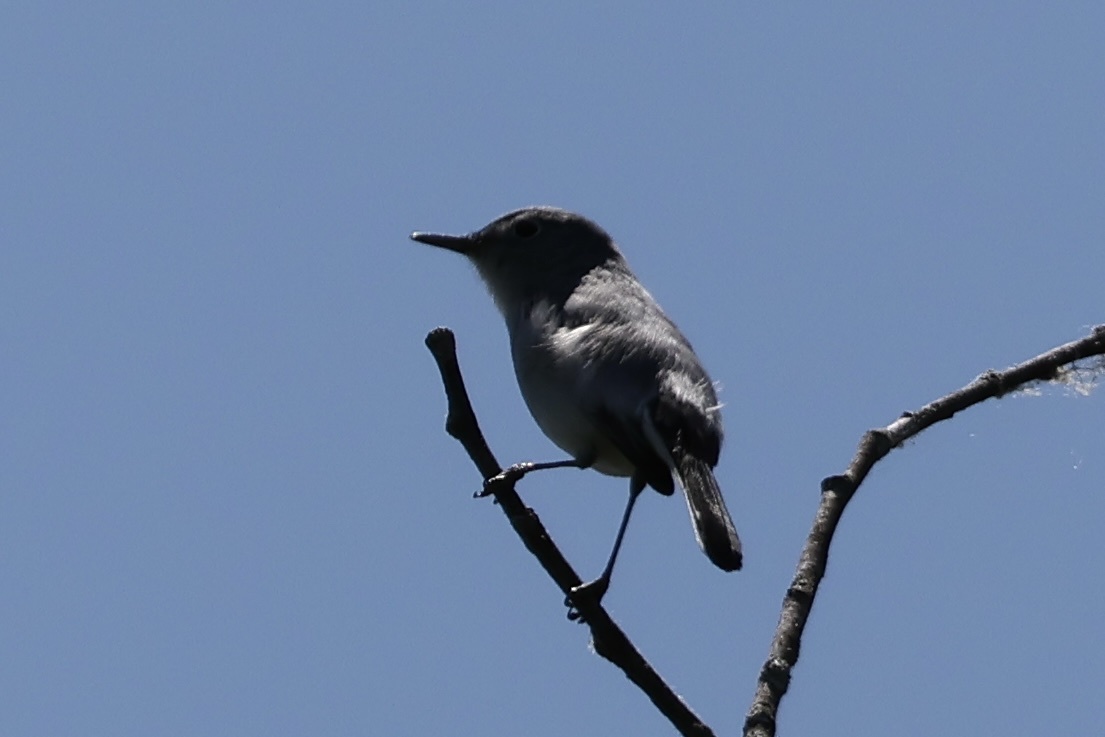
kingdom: Animalia
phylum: Chordata
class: Aves
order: Passeriformes
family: Polioptilidae
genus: Polioptila
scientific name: Polioptila caerulea
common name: Blue-gray gnatcatcher
